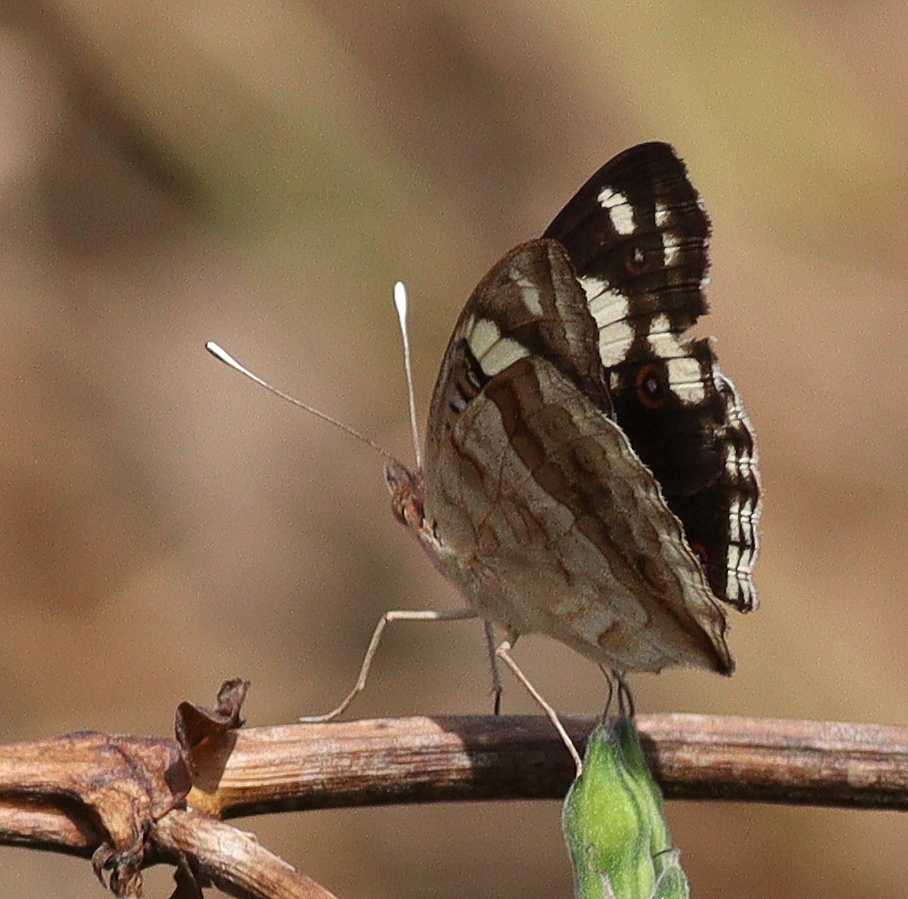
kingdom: Animalia
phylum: Arthropoda
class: Insecta
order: Lepidoptera
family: Nymphalidae
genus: Junonia
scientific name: Junonia oenone
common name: Dark blue pansy
